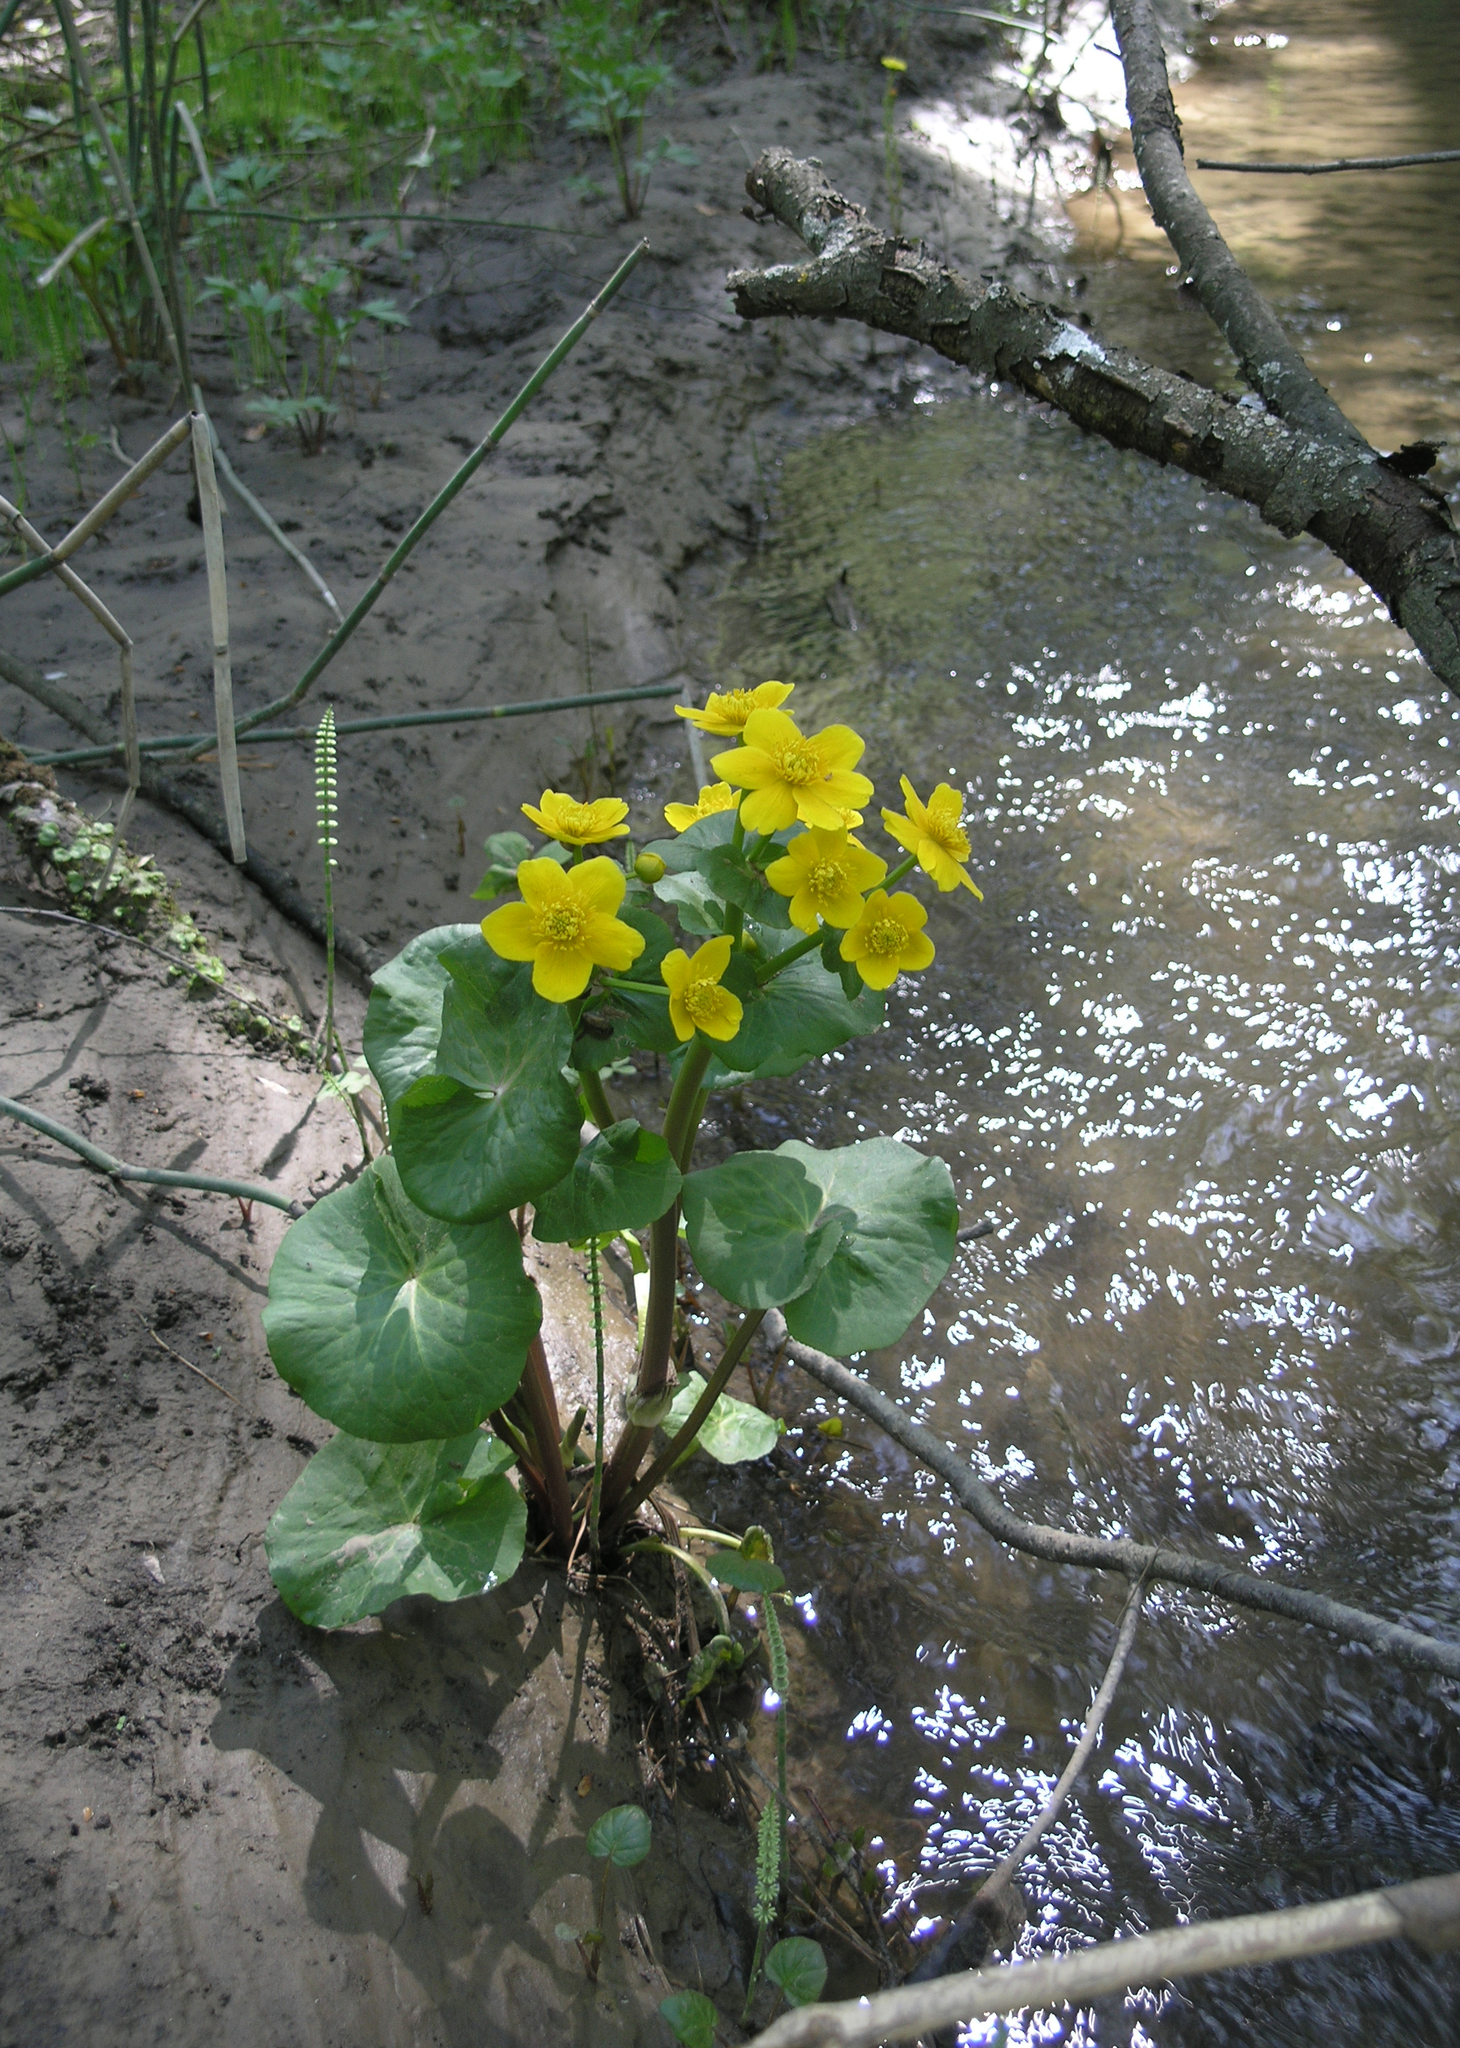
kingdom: Plantae
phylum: Tracheophyta
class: Magnoliopsida
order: Ranunculales
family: Ranunculaceae
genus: Caltha
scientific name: Caltha palustris
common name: Marsh marigold
